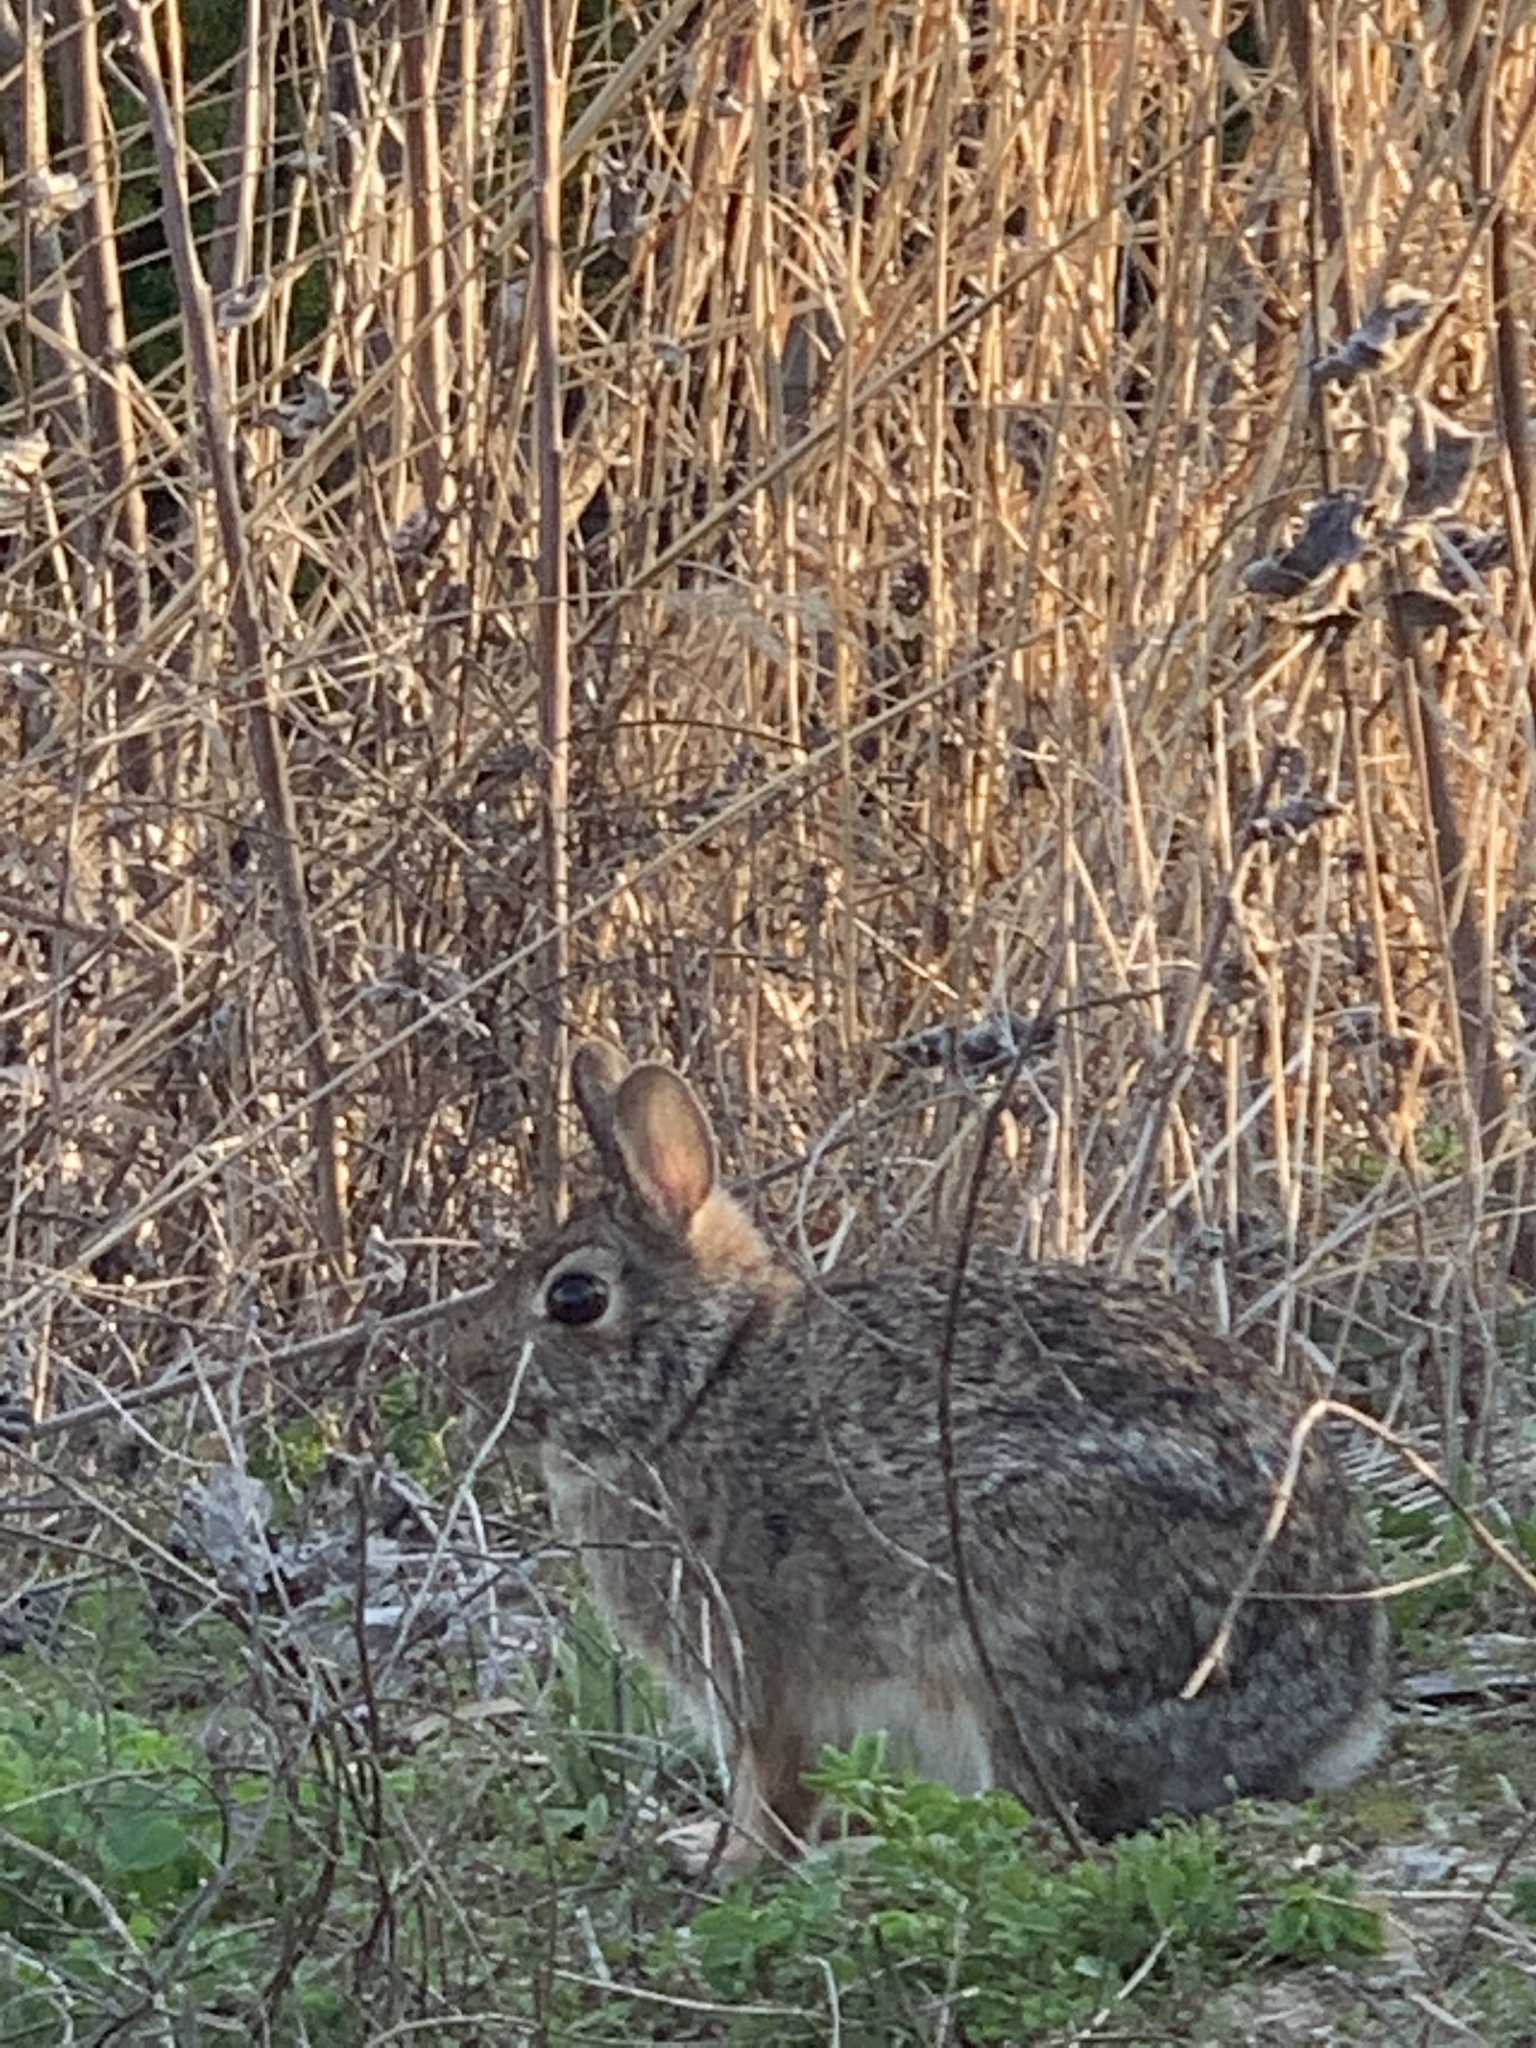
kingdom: Animalia
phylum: Chordata
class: Mammalia
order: Lagomorpha
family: Leporidae
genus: Sylvilagus
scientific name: Sylvilagus floridanus
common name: Eastern cottontail
